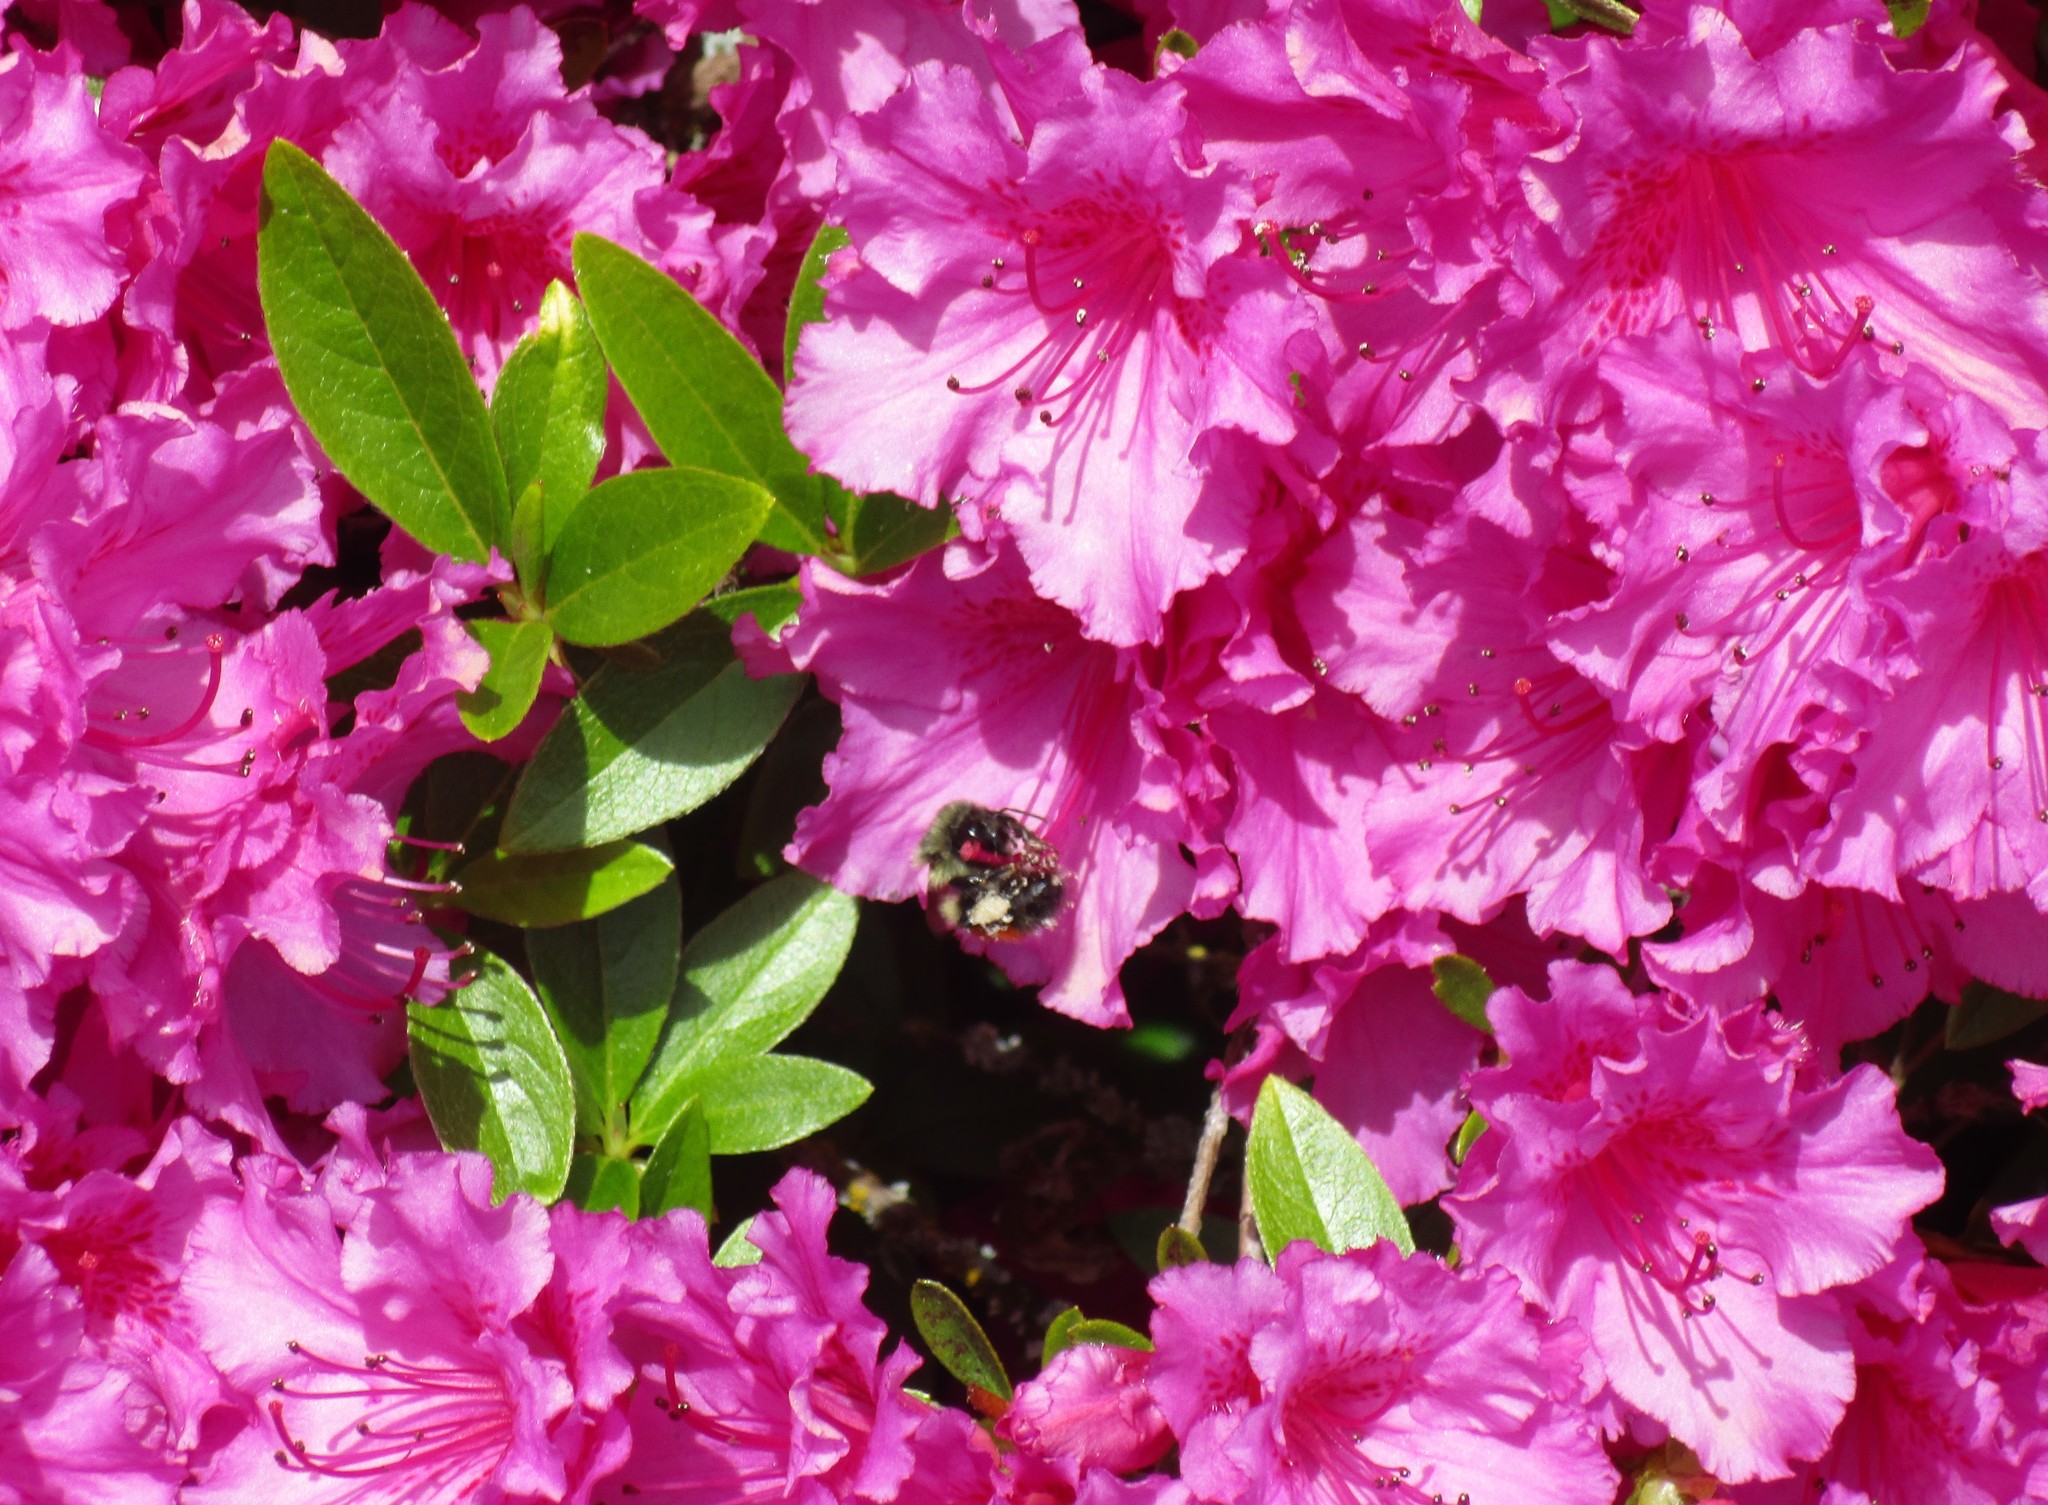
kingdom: Animalia
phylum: Arthropoda
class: Insecta
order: Hymenoptera
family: Apidae
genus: Bombus
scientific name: Bombus melanopygus
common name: Black tail bumble bee
